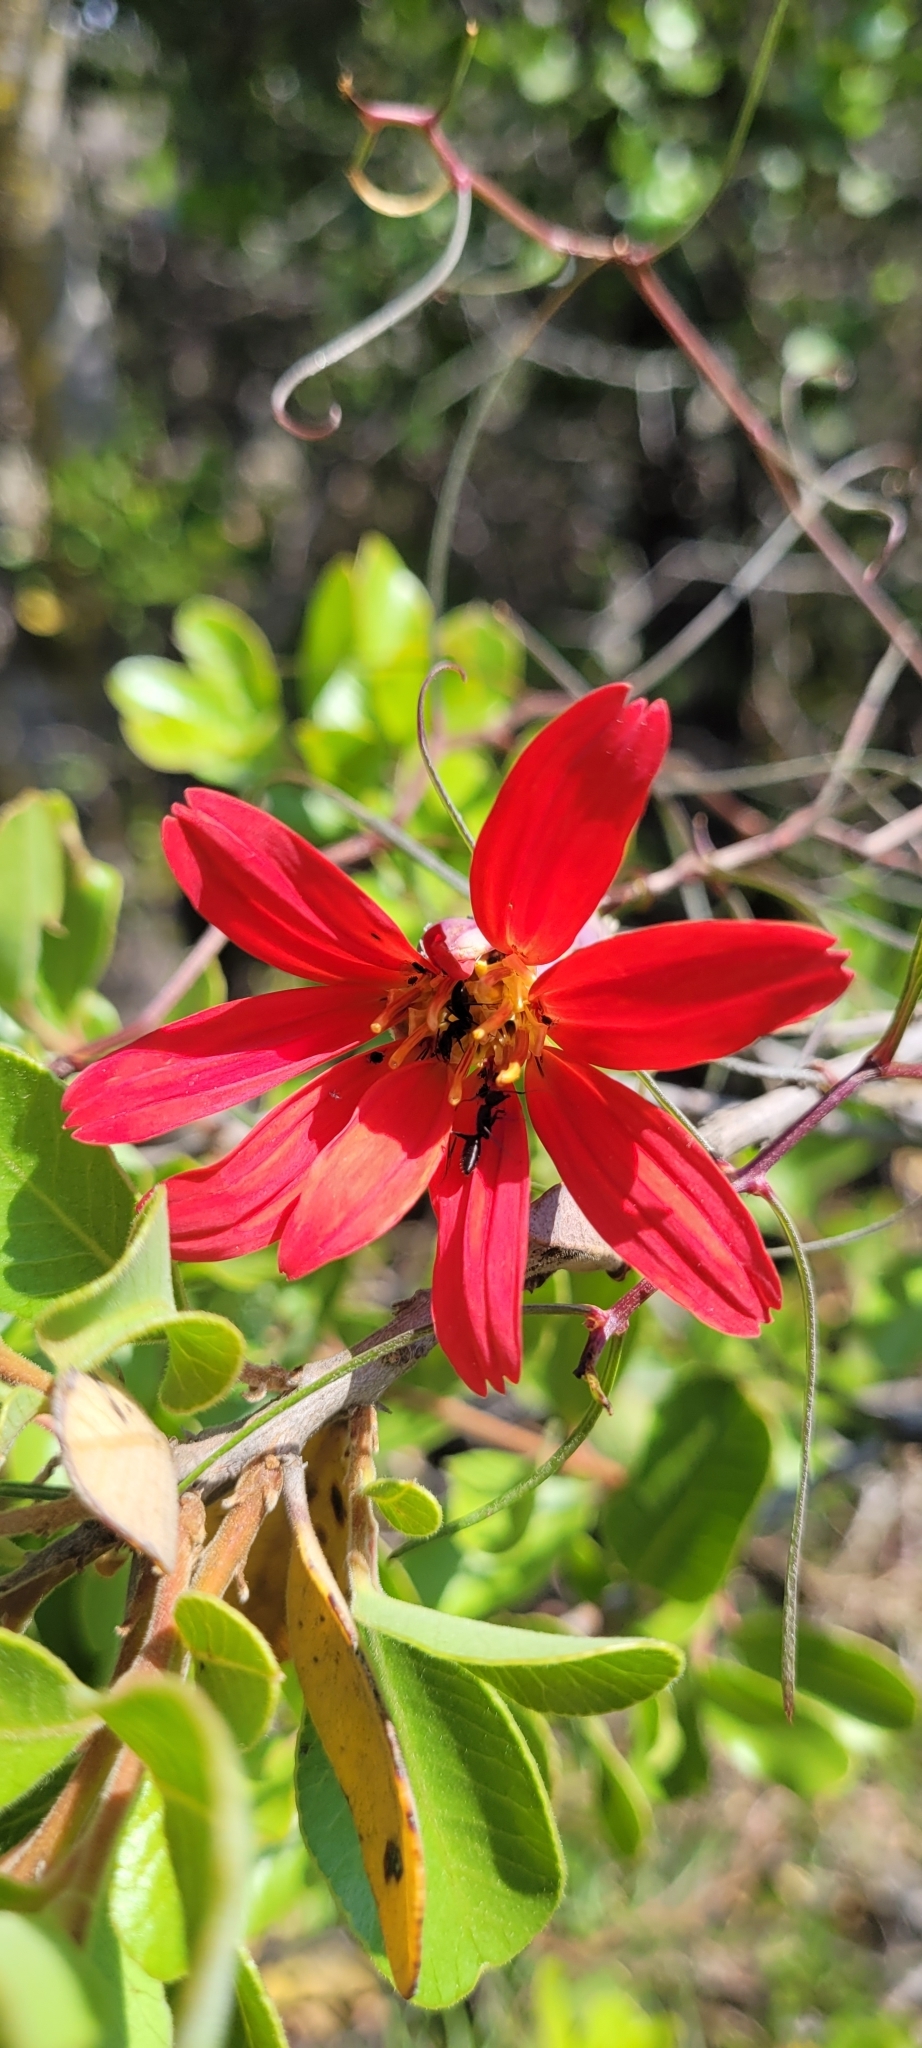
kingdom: Plantae
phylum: Tracheophyta
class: Magnoliopsida
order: Asterales
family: Asteraceae
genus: Mutisia
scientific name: Mutisia subulata
